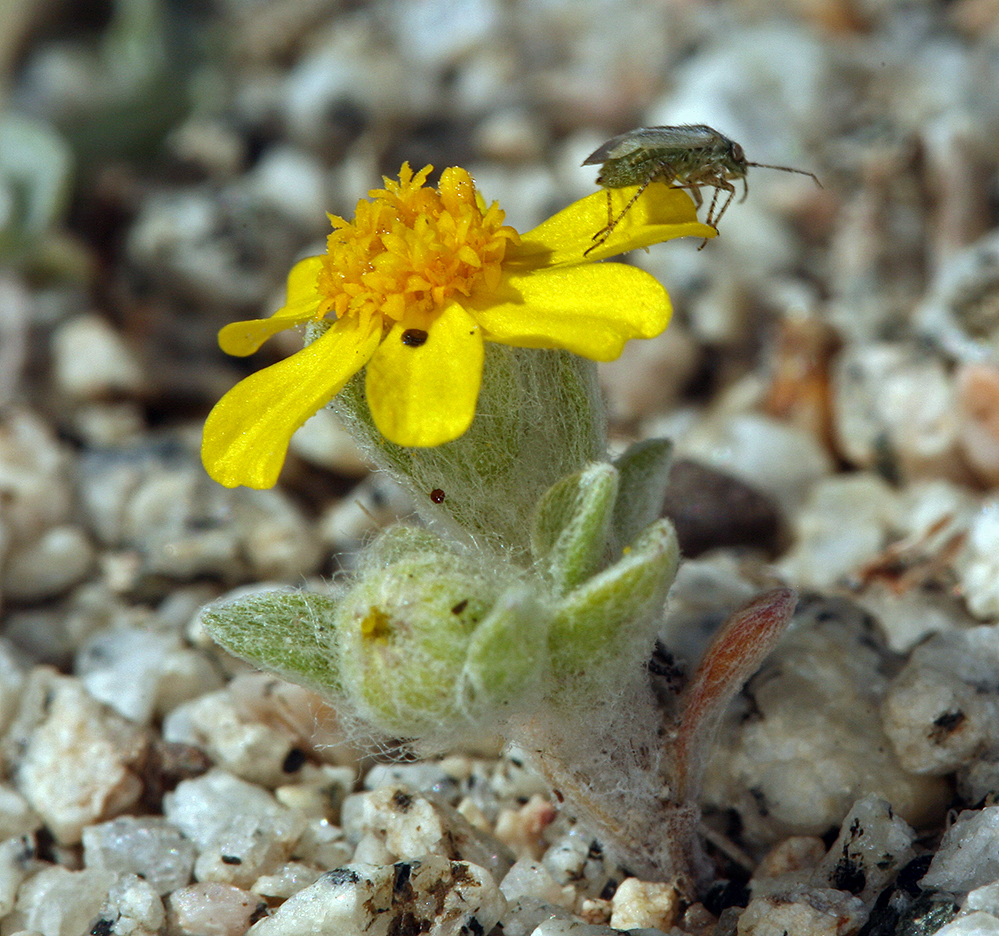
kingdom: Plantae
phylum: Tracheophyta
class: Magnoliopsida
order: Asterales
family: Asteraceae
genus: Eriophyllum
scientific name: Eriophyllum wallacei
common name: Wallace's woolly daisy
